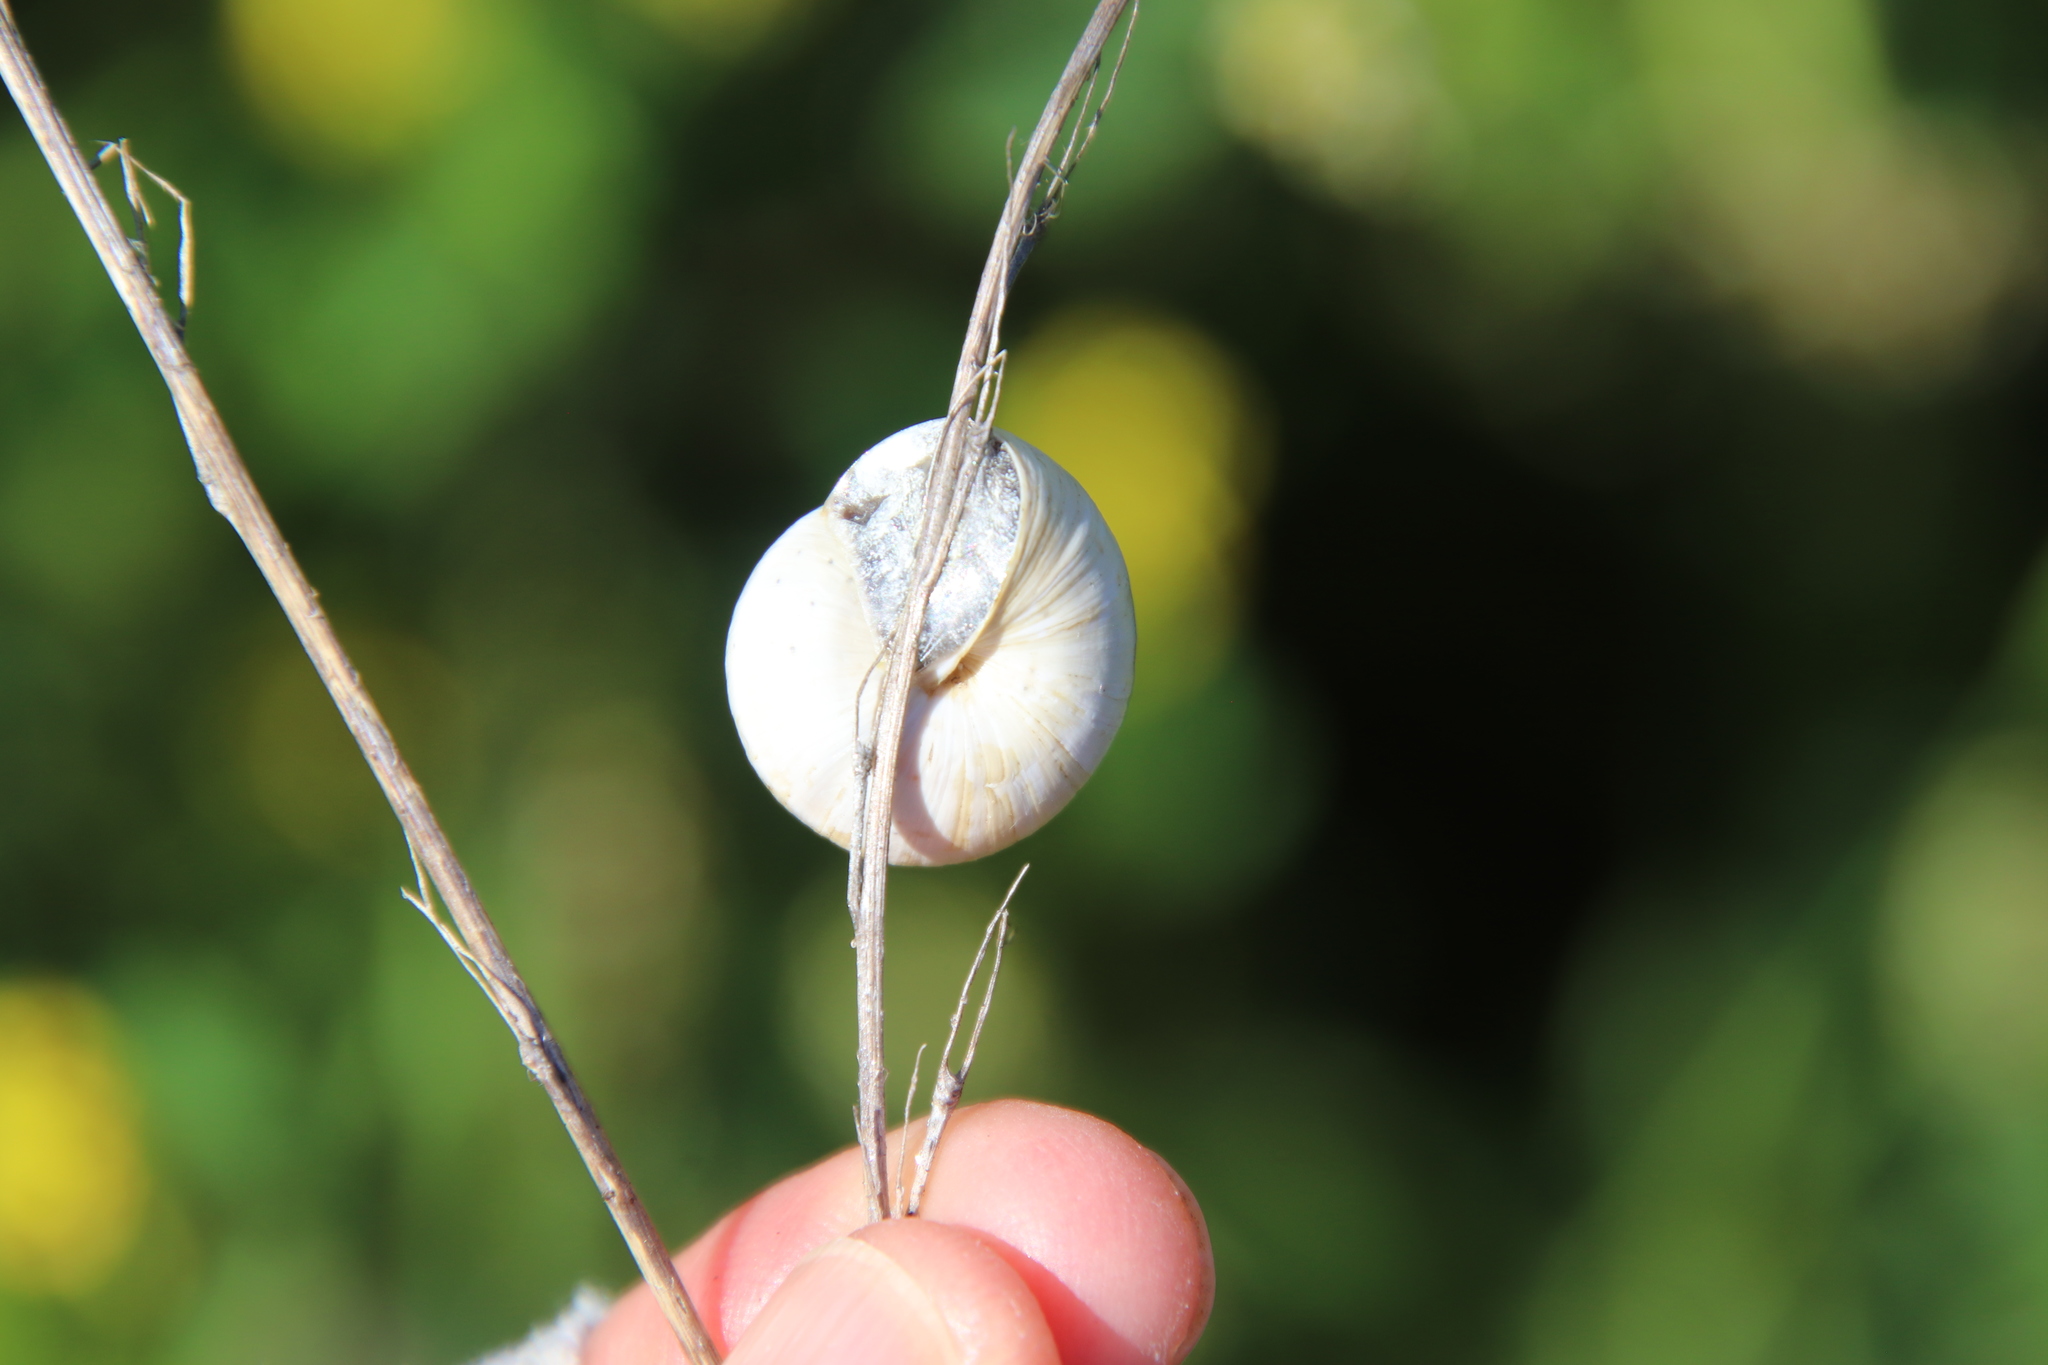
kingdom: Animalia
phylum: Mollusca
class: Gastropoda
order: Stylommatophora
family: Helicidae
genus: Theba
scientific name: Theba pisana
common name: White snail
